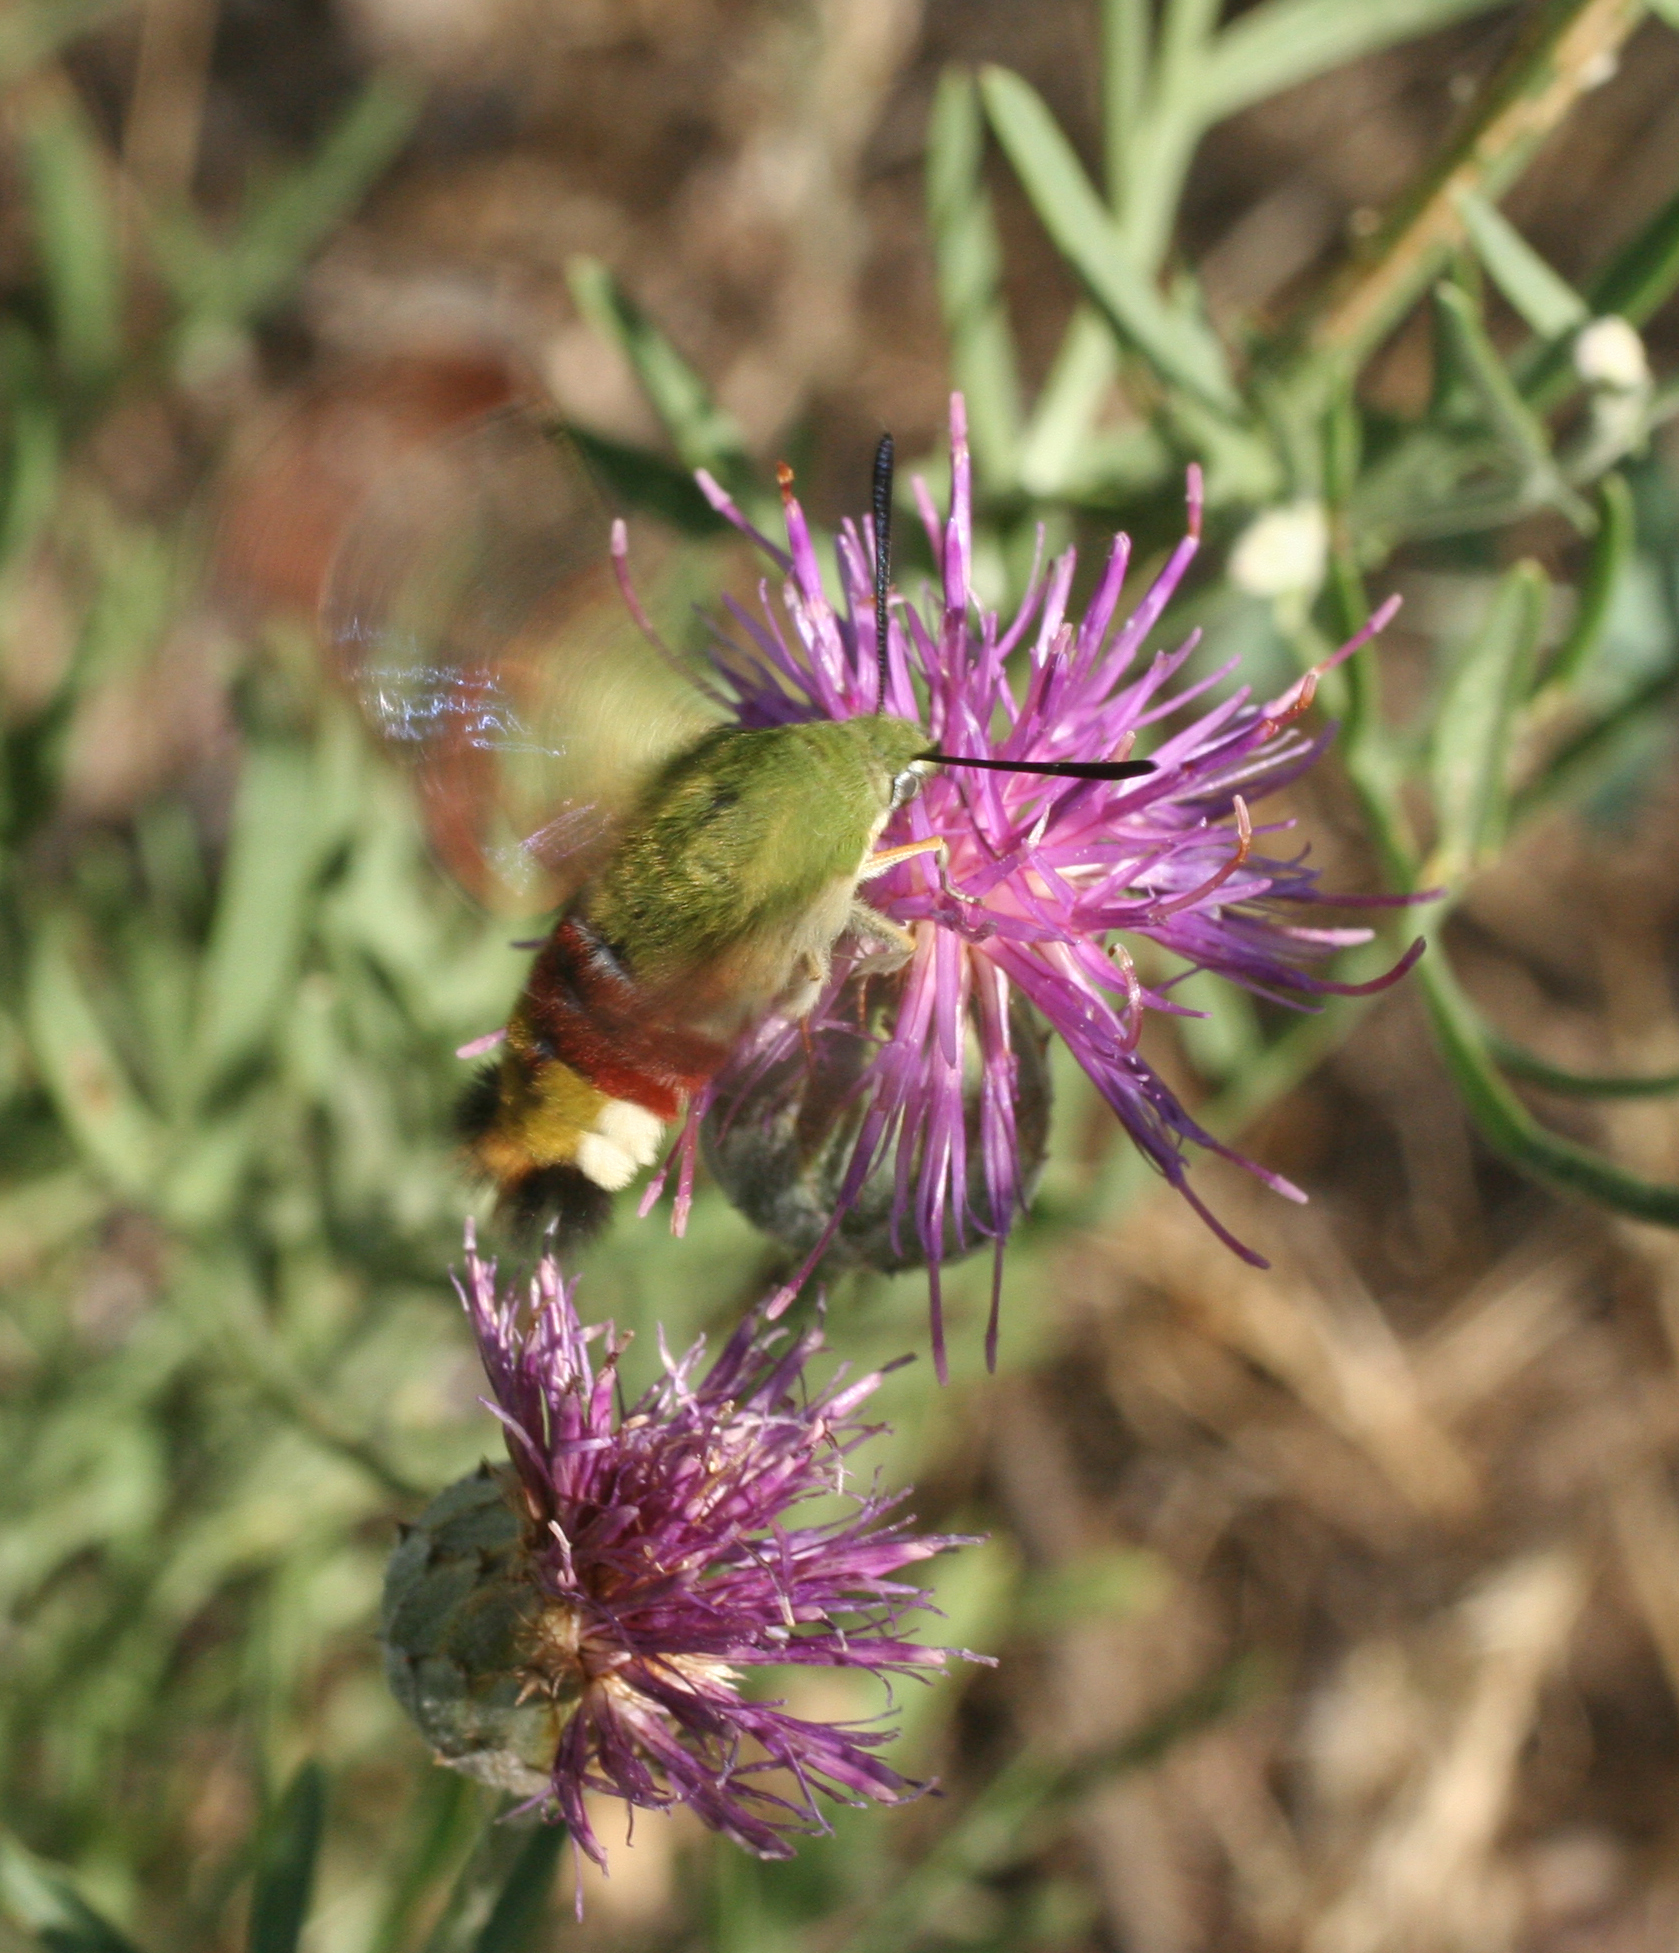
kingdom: Animalia
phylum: Arthropoda
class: Insecta
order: Lepidoptera
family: Sphingidae
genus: Hemaris
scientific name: Hemaris fuciformis
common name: Broad-bordered bee hawk-moth
